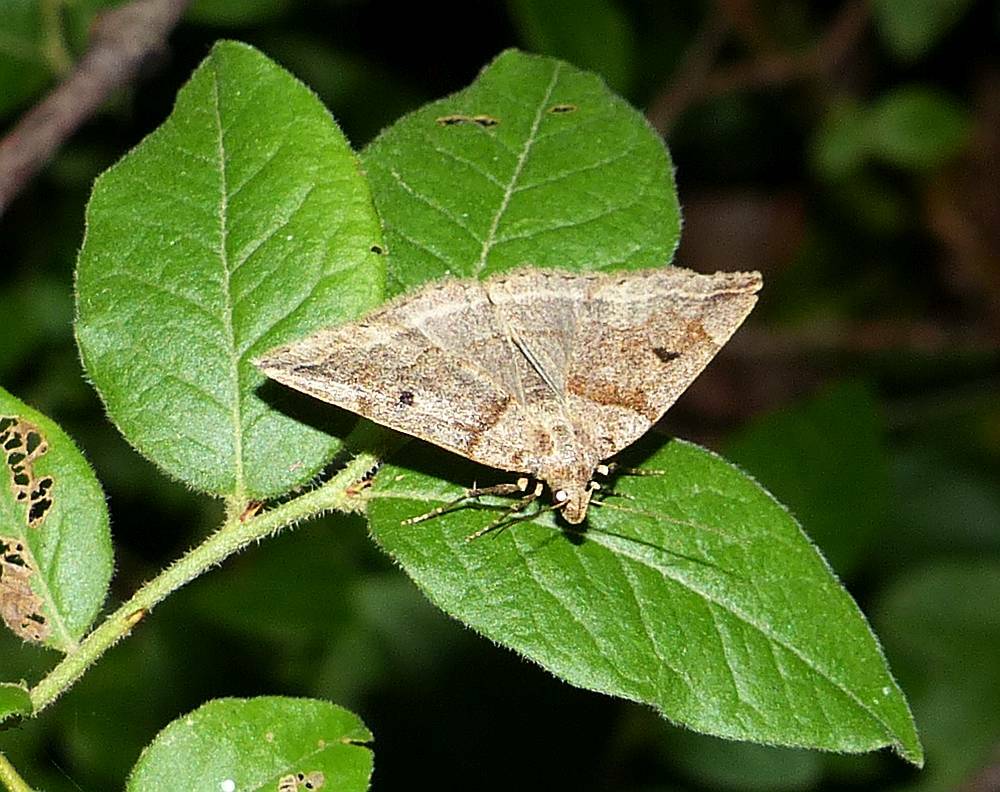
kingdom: Animalia
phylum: Arthropoda
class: Insecta
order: Lepidoptera
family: Erebidae
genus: Zanclognatha
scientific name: Zanclognatha laevigata
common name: Variable fan-foot
